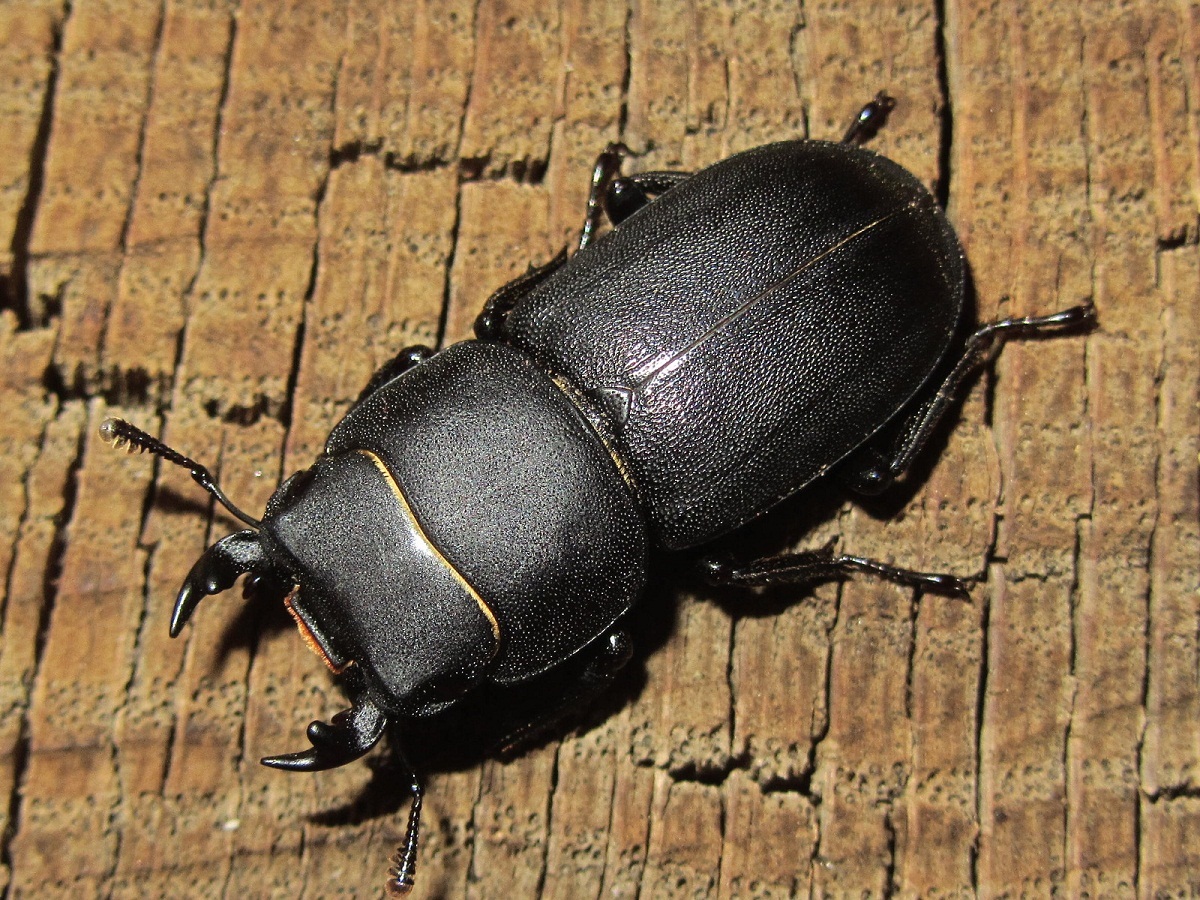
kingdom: Animalia
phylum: Arthropoda
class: Insecta
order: Coleoptera
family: Lucanidae
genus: Dorcus
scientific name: Dorcus parallelipipedus
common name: Lesser stag beetle
